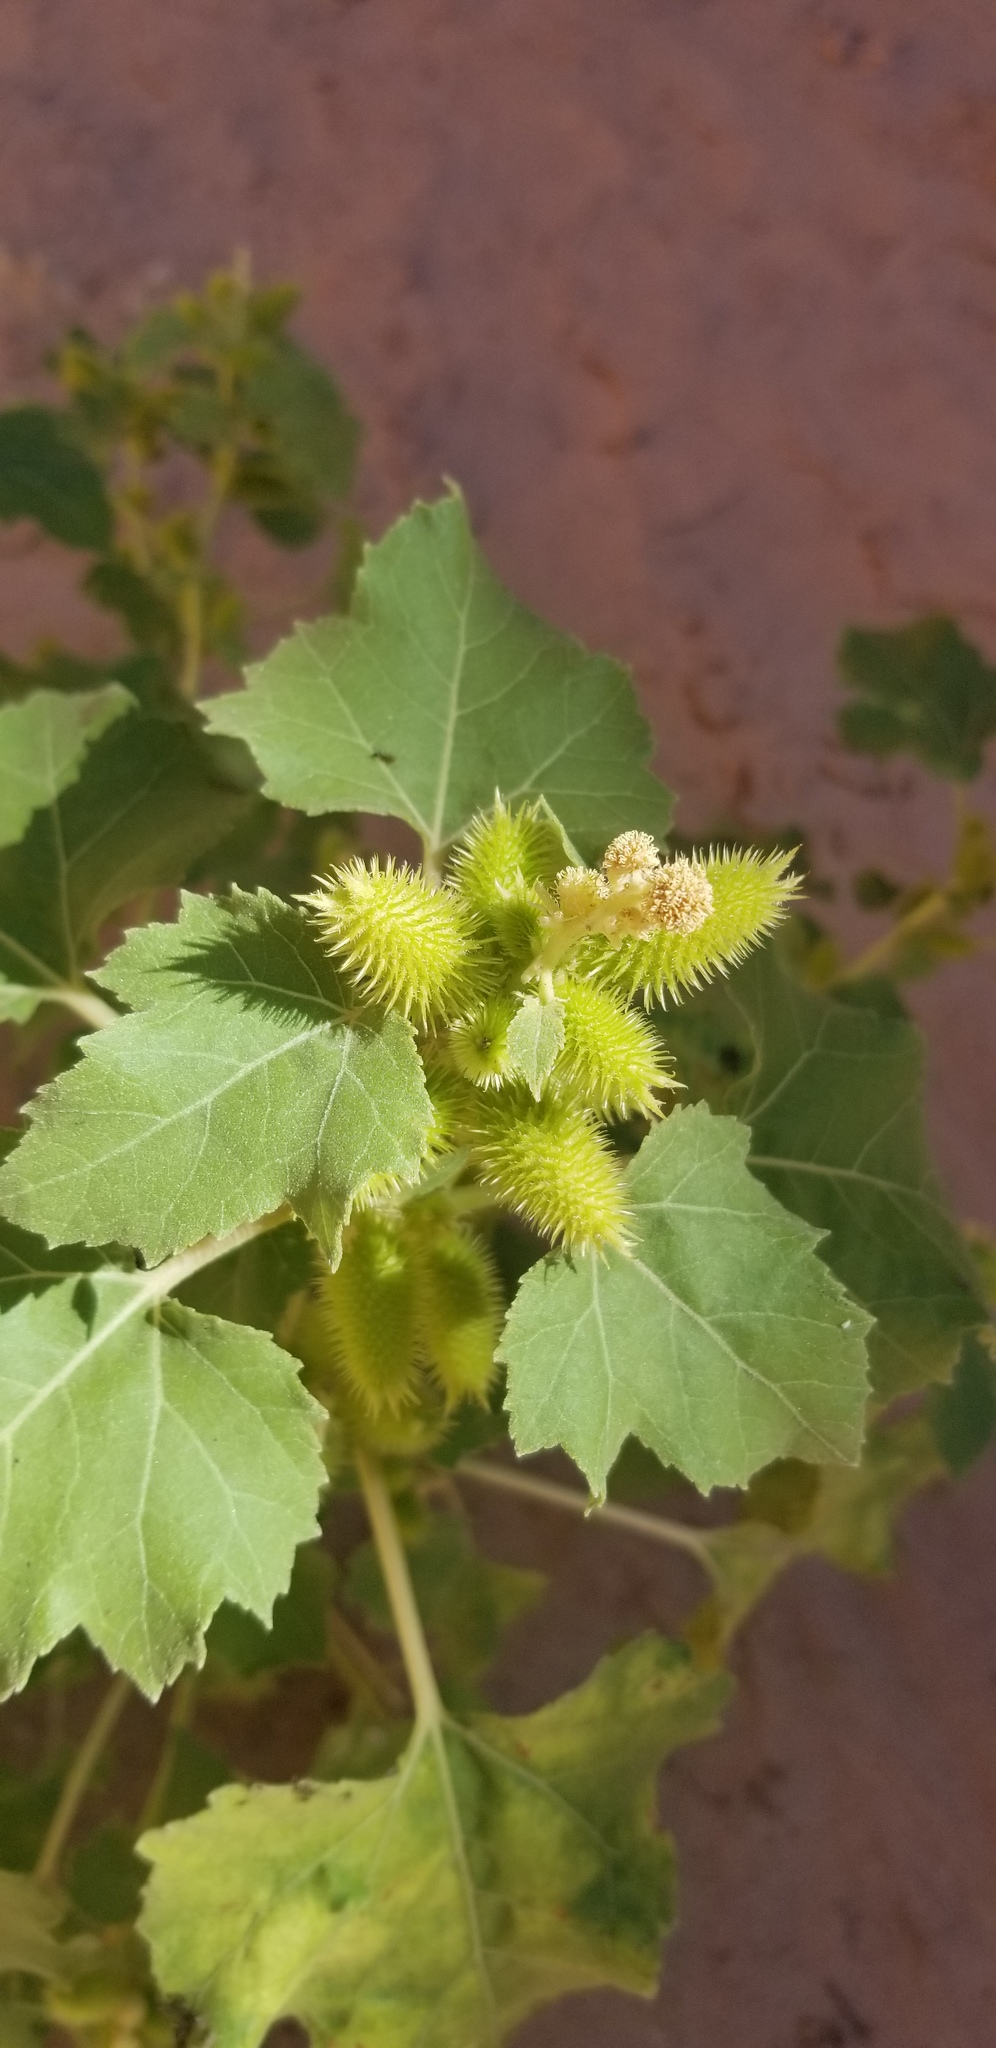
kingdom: Plantae
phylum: Tracheophyta
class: Magnoliopsida
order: Asterales
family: Asteraceae
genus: Xanthium
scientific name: Xanthium strumarium
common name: Rough cocklebur
